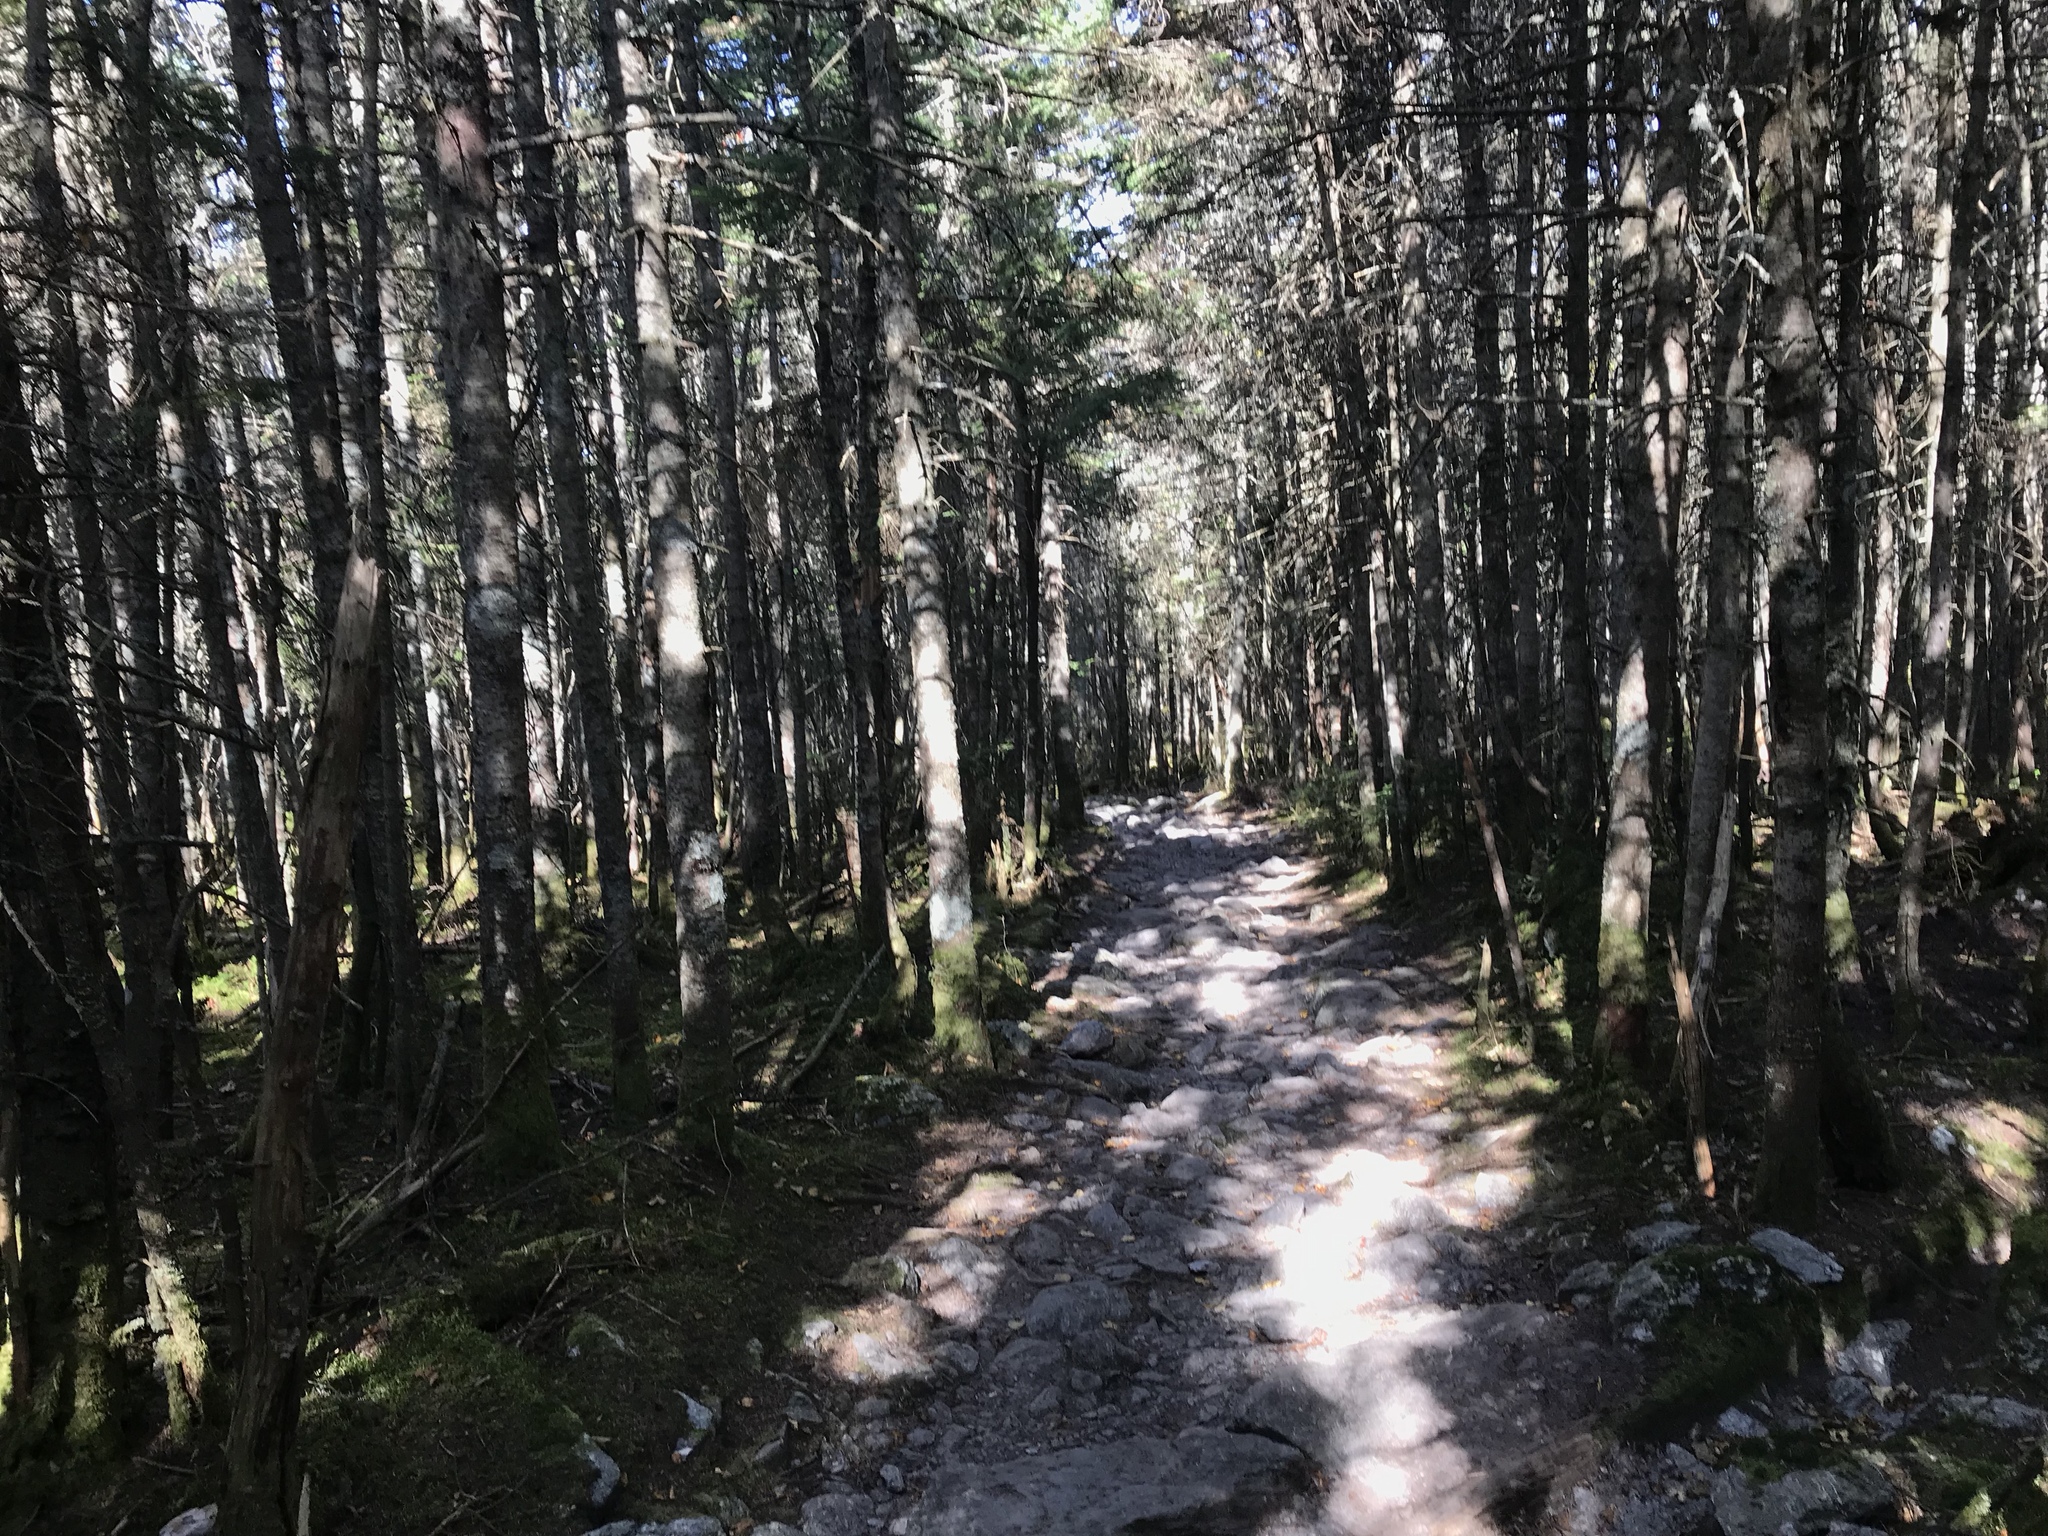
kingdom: Plantae
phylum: Tracheophyta
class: Pinopsida
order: Pinales
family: Pinaceae
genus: Abies
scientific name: Abies balsamea
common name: Balsam fir
